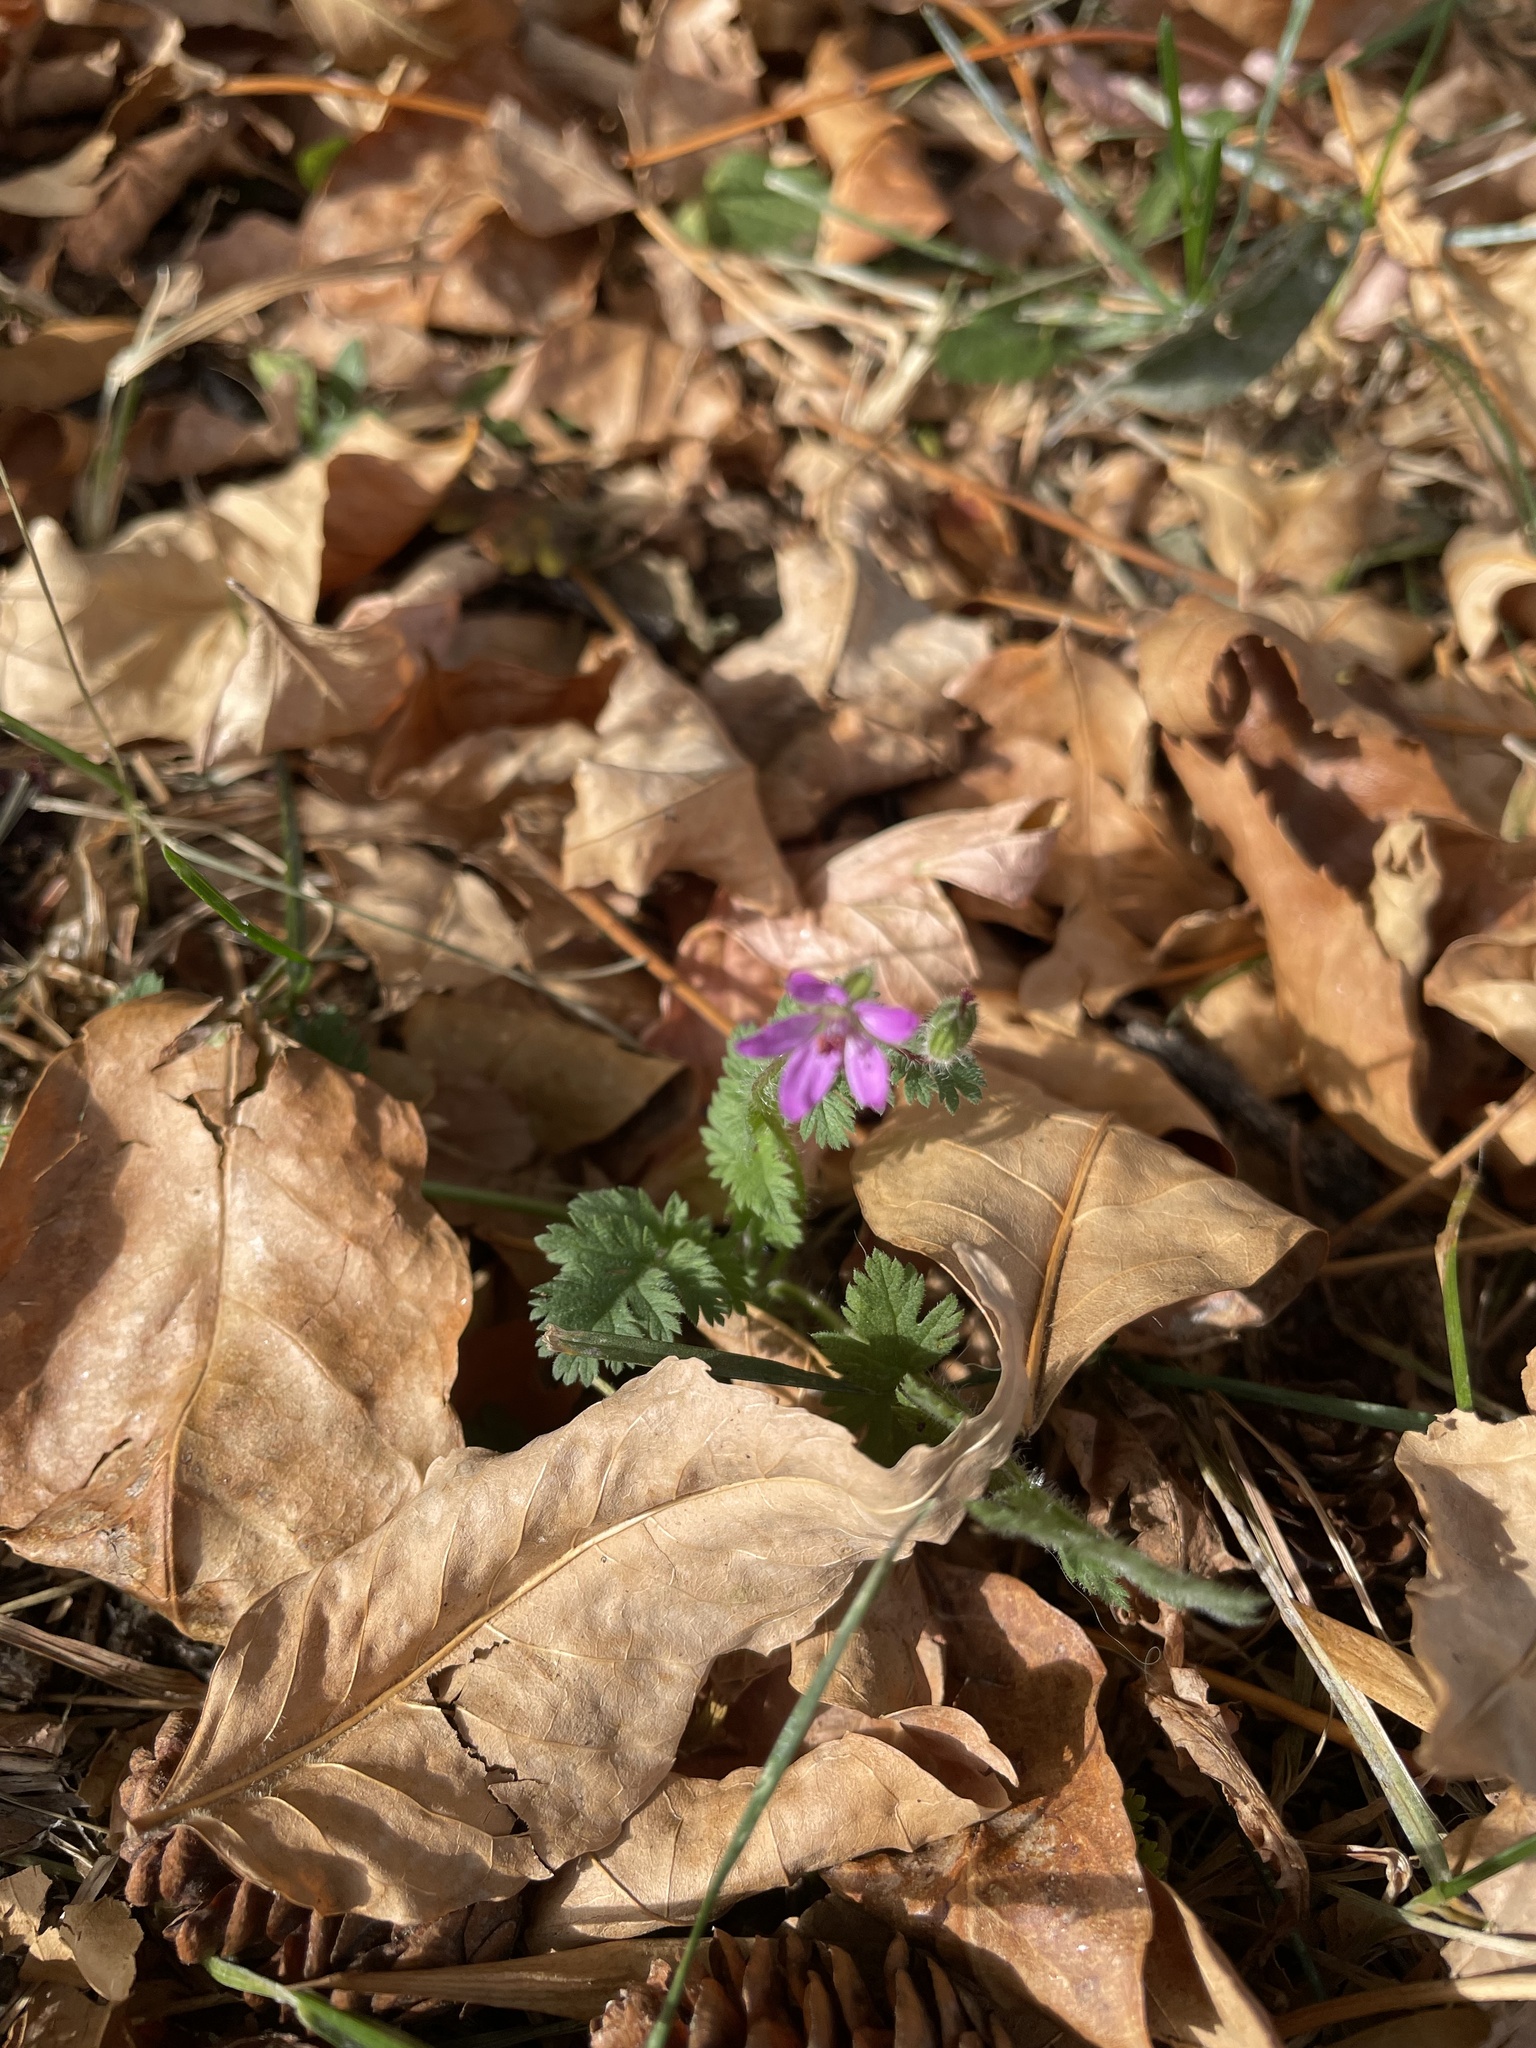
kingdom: Plantae
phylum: Tracheophyta
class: Magnoliopsida
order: Geraniales
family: Geraniaceae
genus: Erodium
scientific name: Erodium cicutarium
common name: Common stork's-bill
